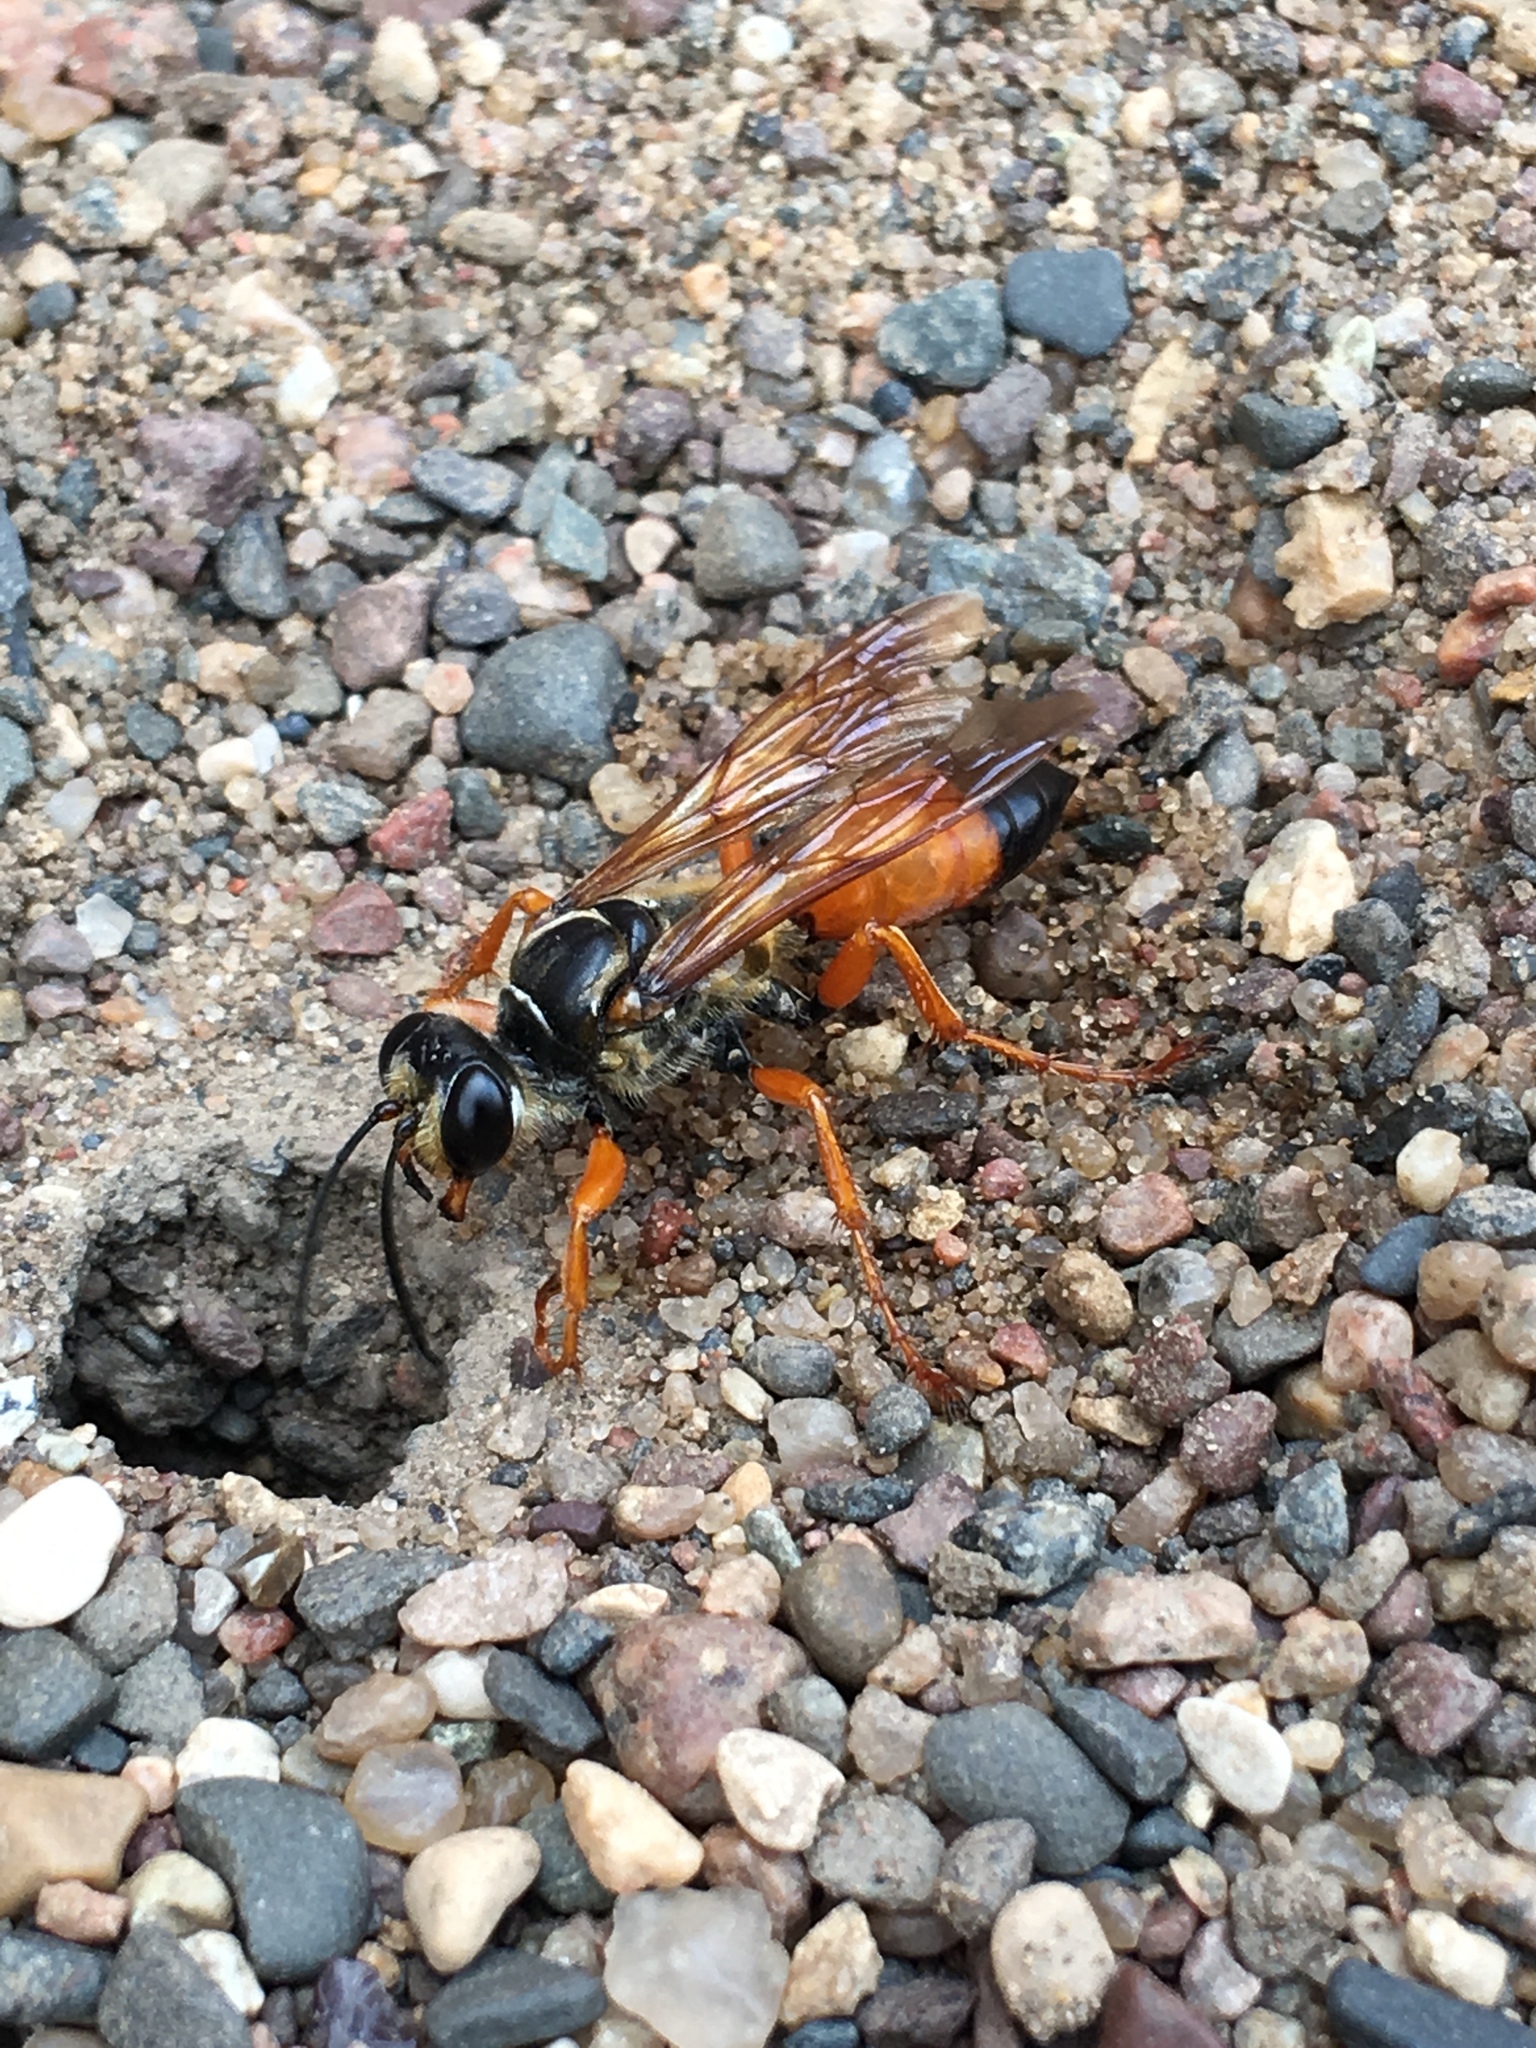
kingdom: Animalia
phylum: Arthropoda
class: Insecta
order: Hymenoptera
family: Sphecidae
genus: Sphex
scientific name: Sphex ichneumoneus
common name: Great golden digger wasp
